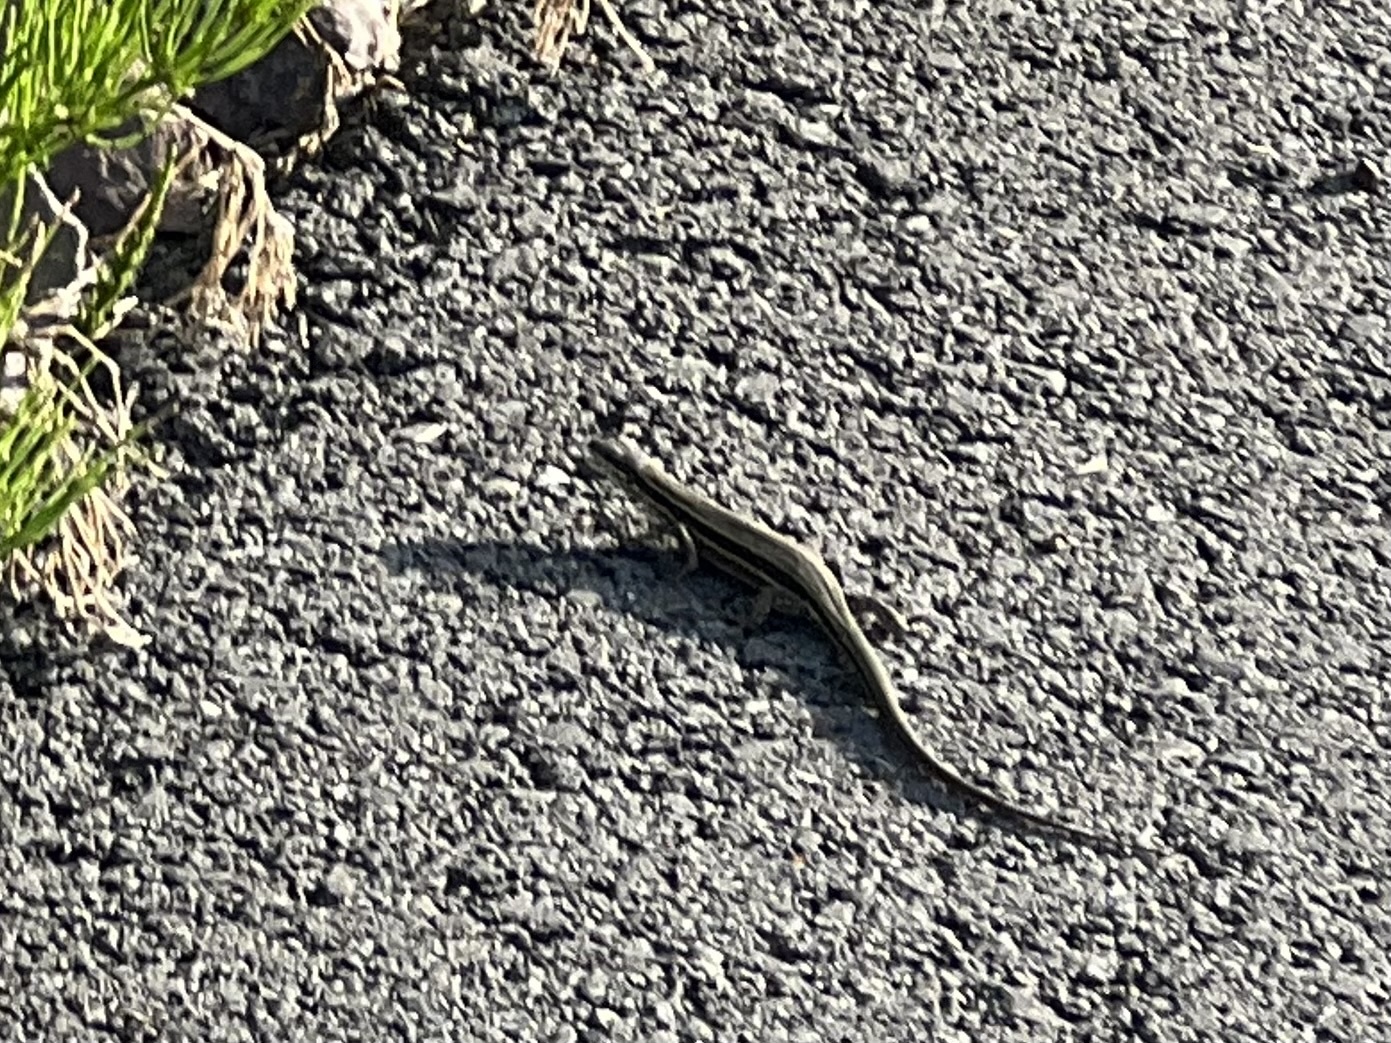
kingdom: Animalia
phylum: Chordata
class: Squamata
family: Lacertidae
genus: Podarcis
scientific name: Podarcis muralis
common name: Common wall lizard
